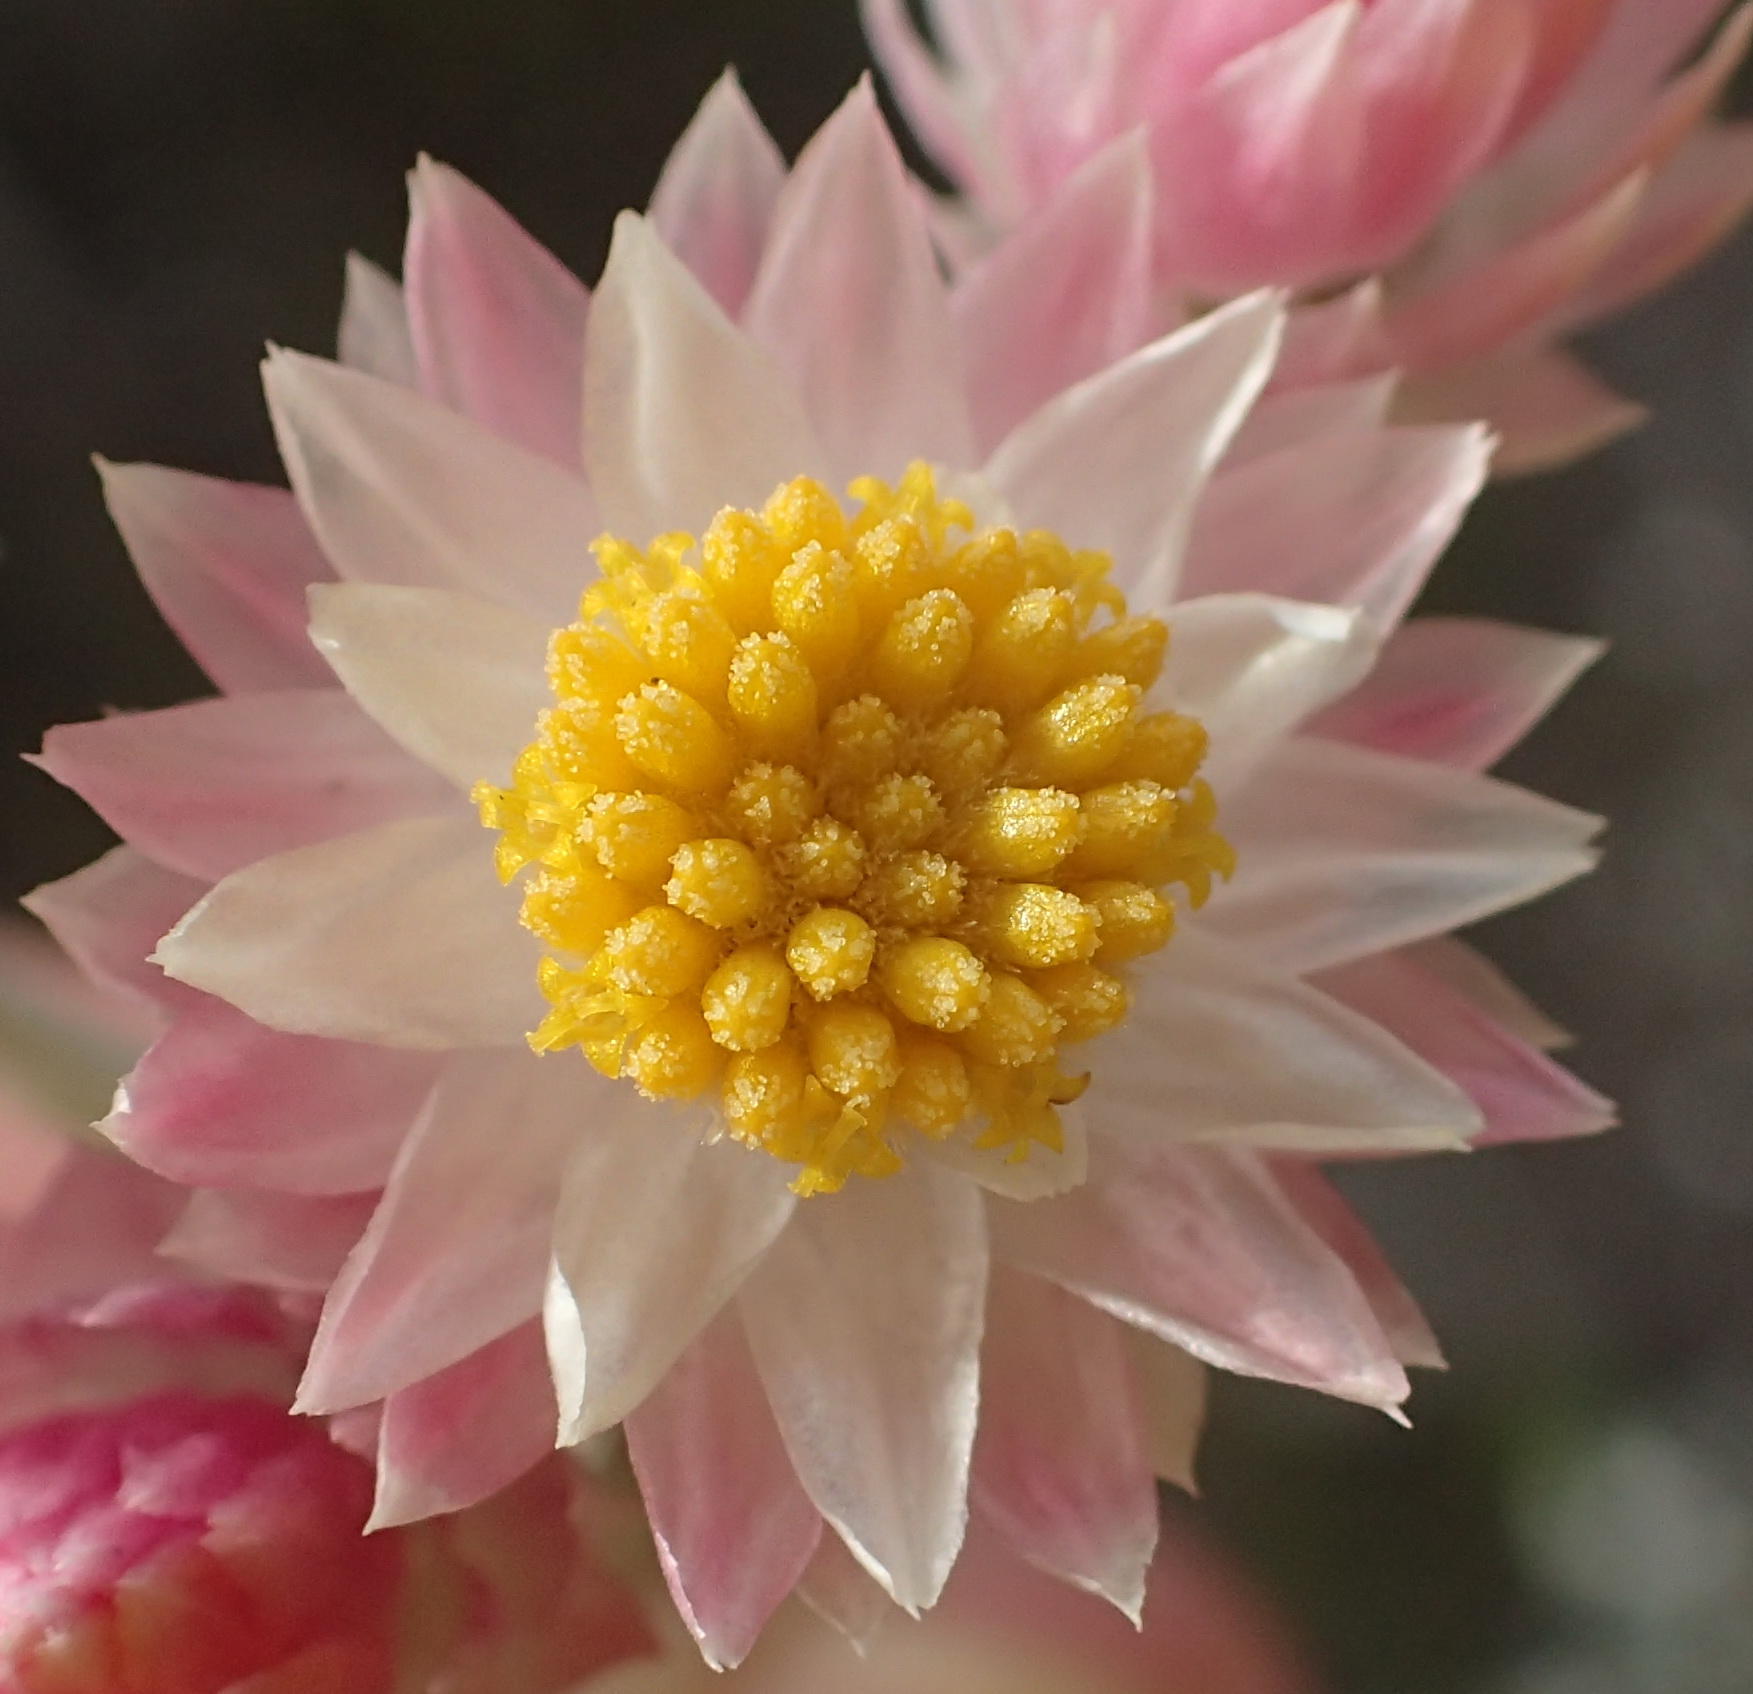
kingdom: Plantae
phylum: Tracheophyta
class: Magnoliopsida
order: Asterales
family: Asteraceae
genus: Achyranthemum
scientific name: Achyranthemum paniculatum
